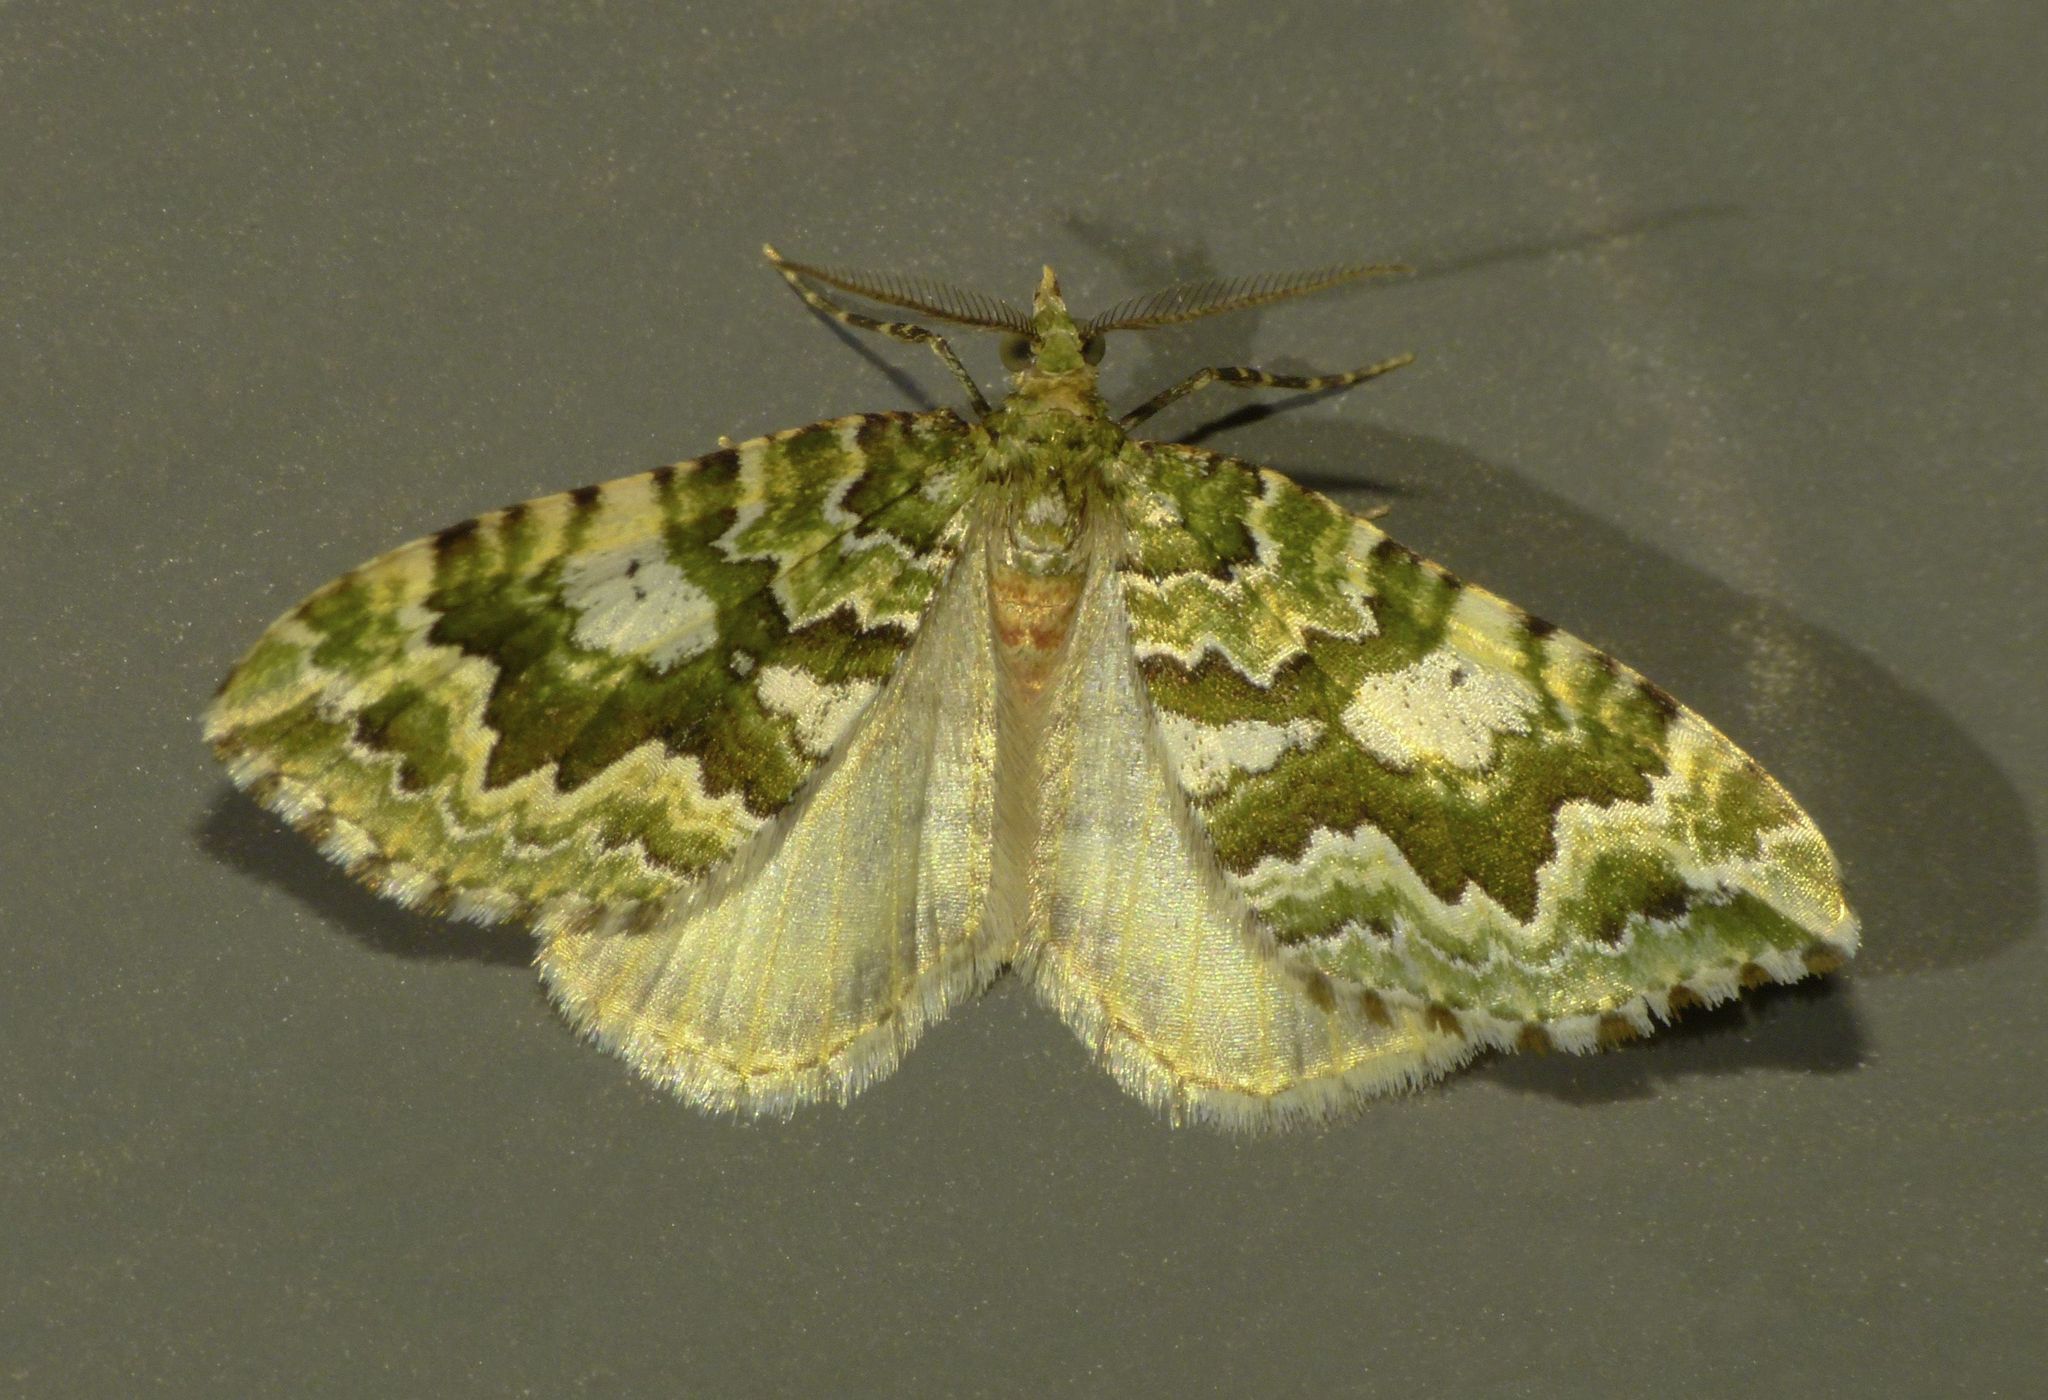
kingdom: Animalia
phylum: Arthropoda
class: Insecta
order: Lepidoptera
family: Geometridae
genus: Asaphodes
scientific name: Asaphodes beata
